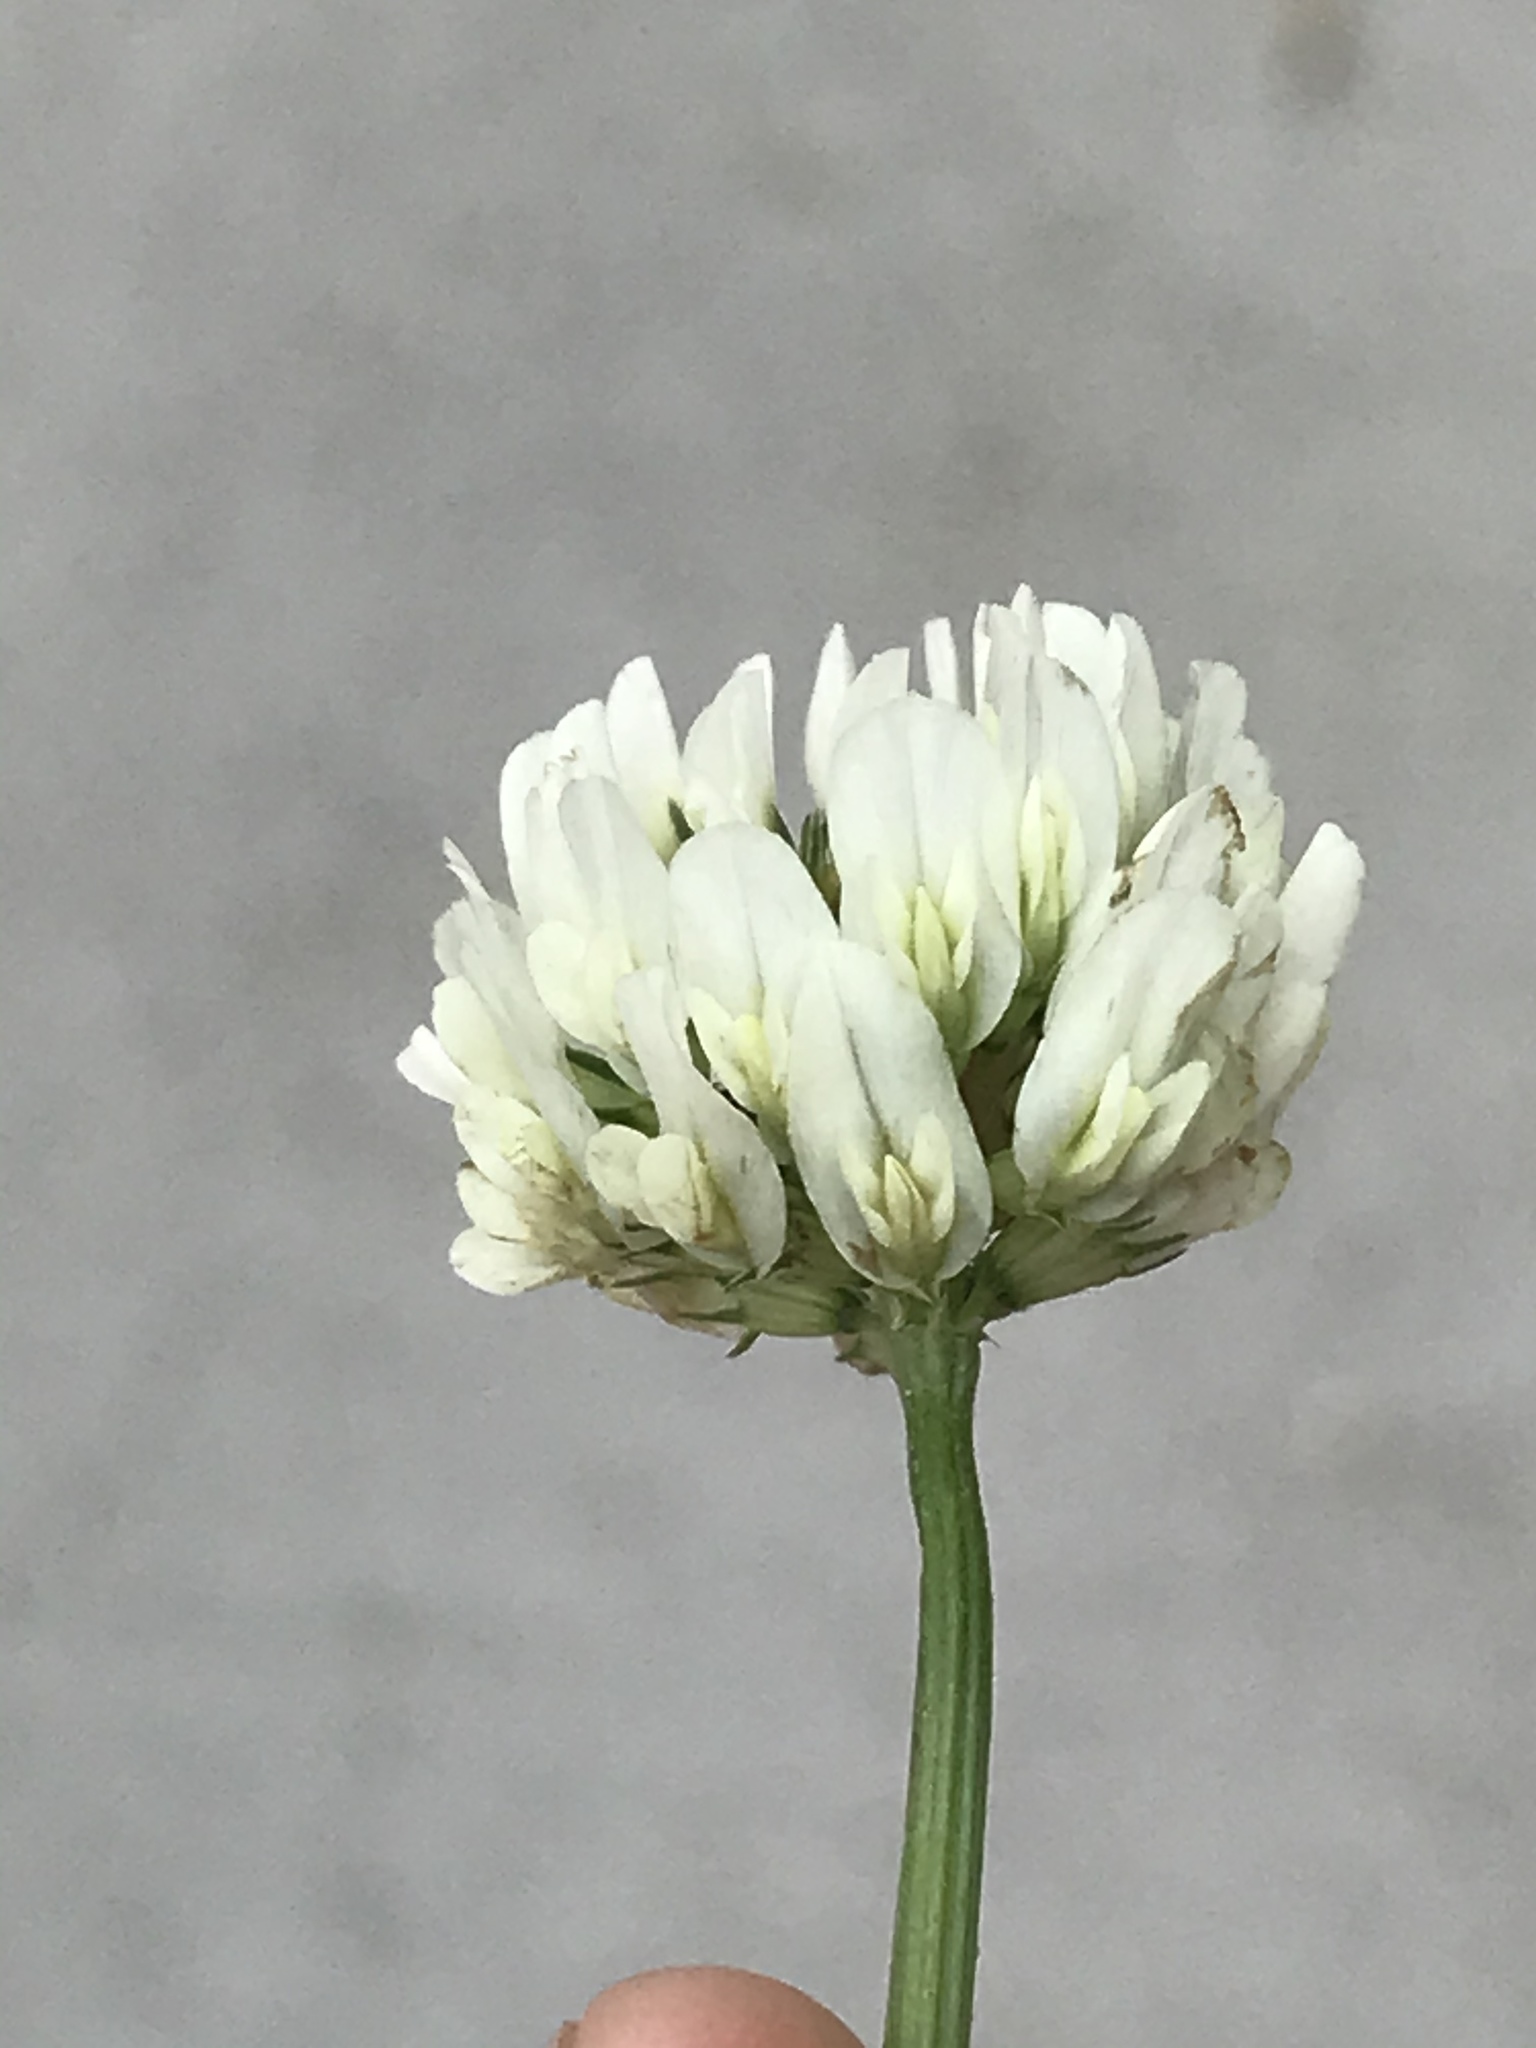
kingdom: Plantae
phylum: Tracheophyta
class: Magnoliopsida
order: Fabales
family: Fabaceae
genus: Trifolium
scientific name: Trifolium repens
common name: White clover
